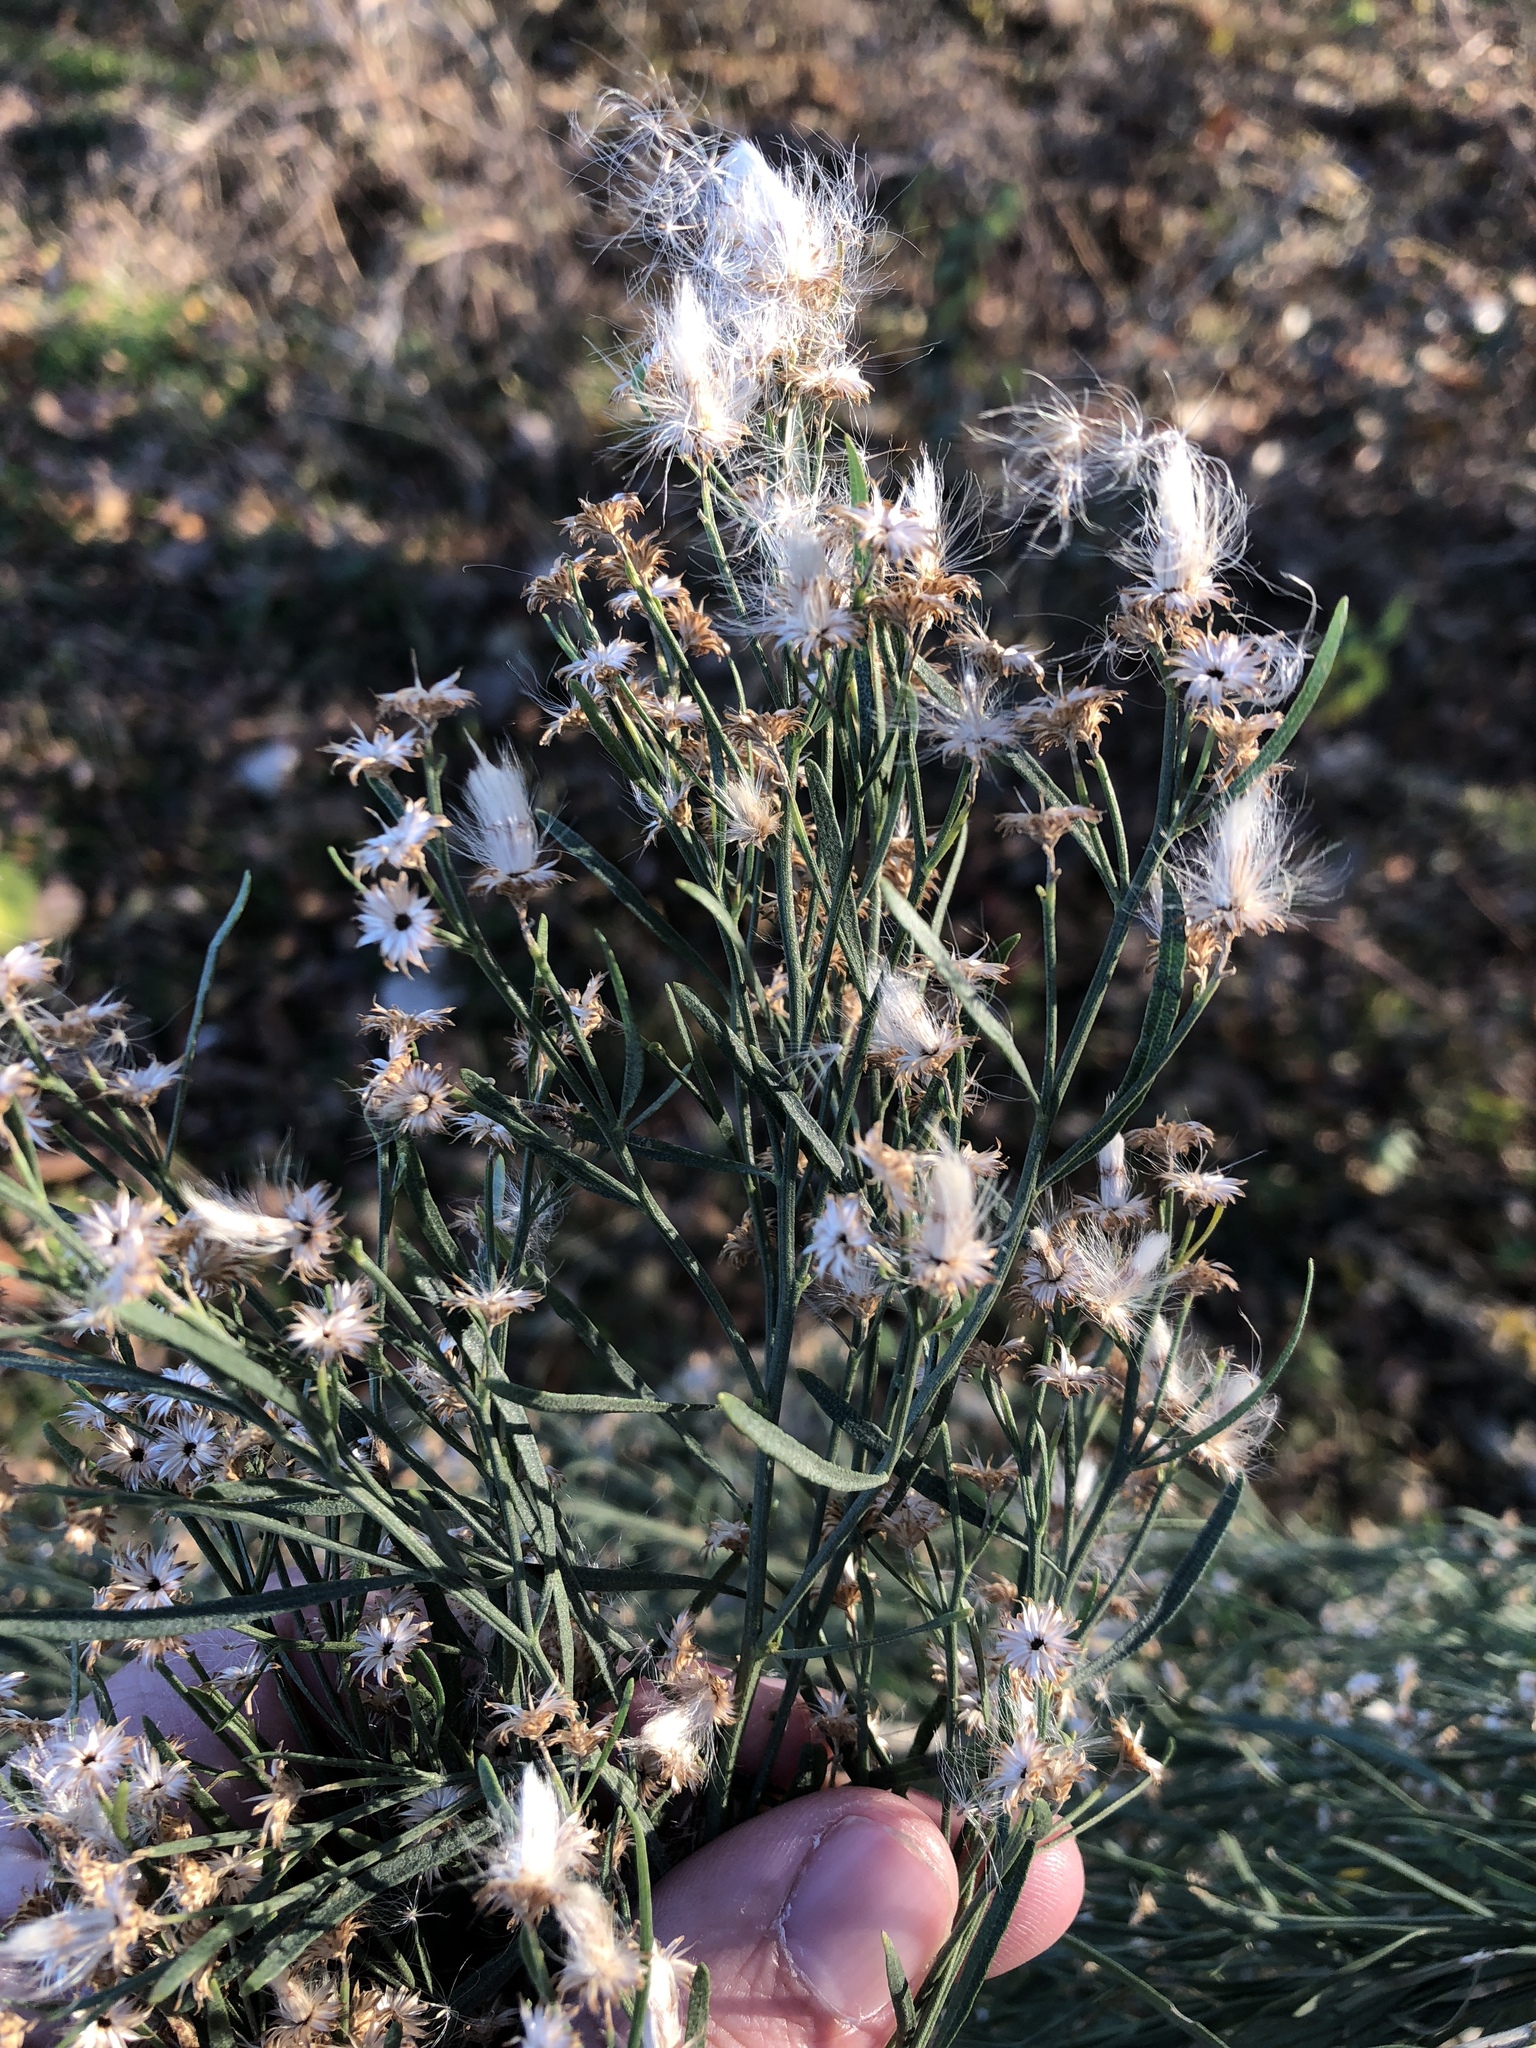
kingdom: Plantae
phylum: Tracheophyta
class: Magnoliopsida
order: Asterales
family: Asteraceae
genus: Baccharis
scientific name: Baccharis neglecta
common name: Roosevelt-weed
